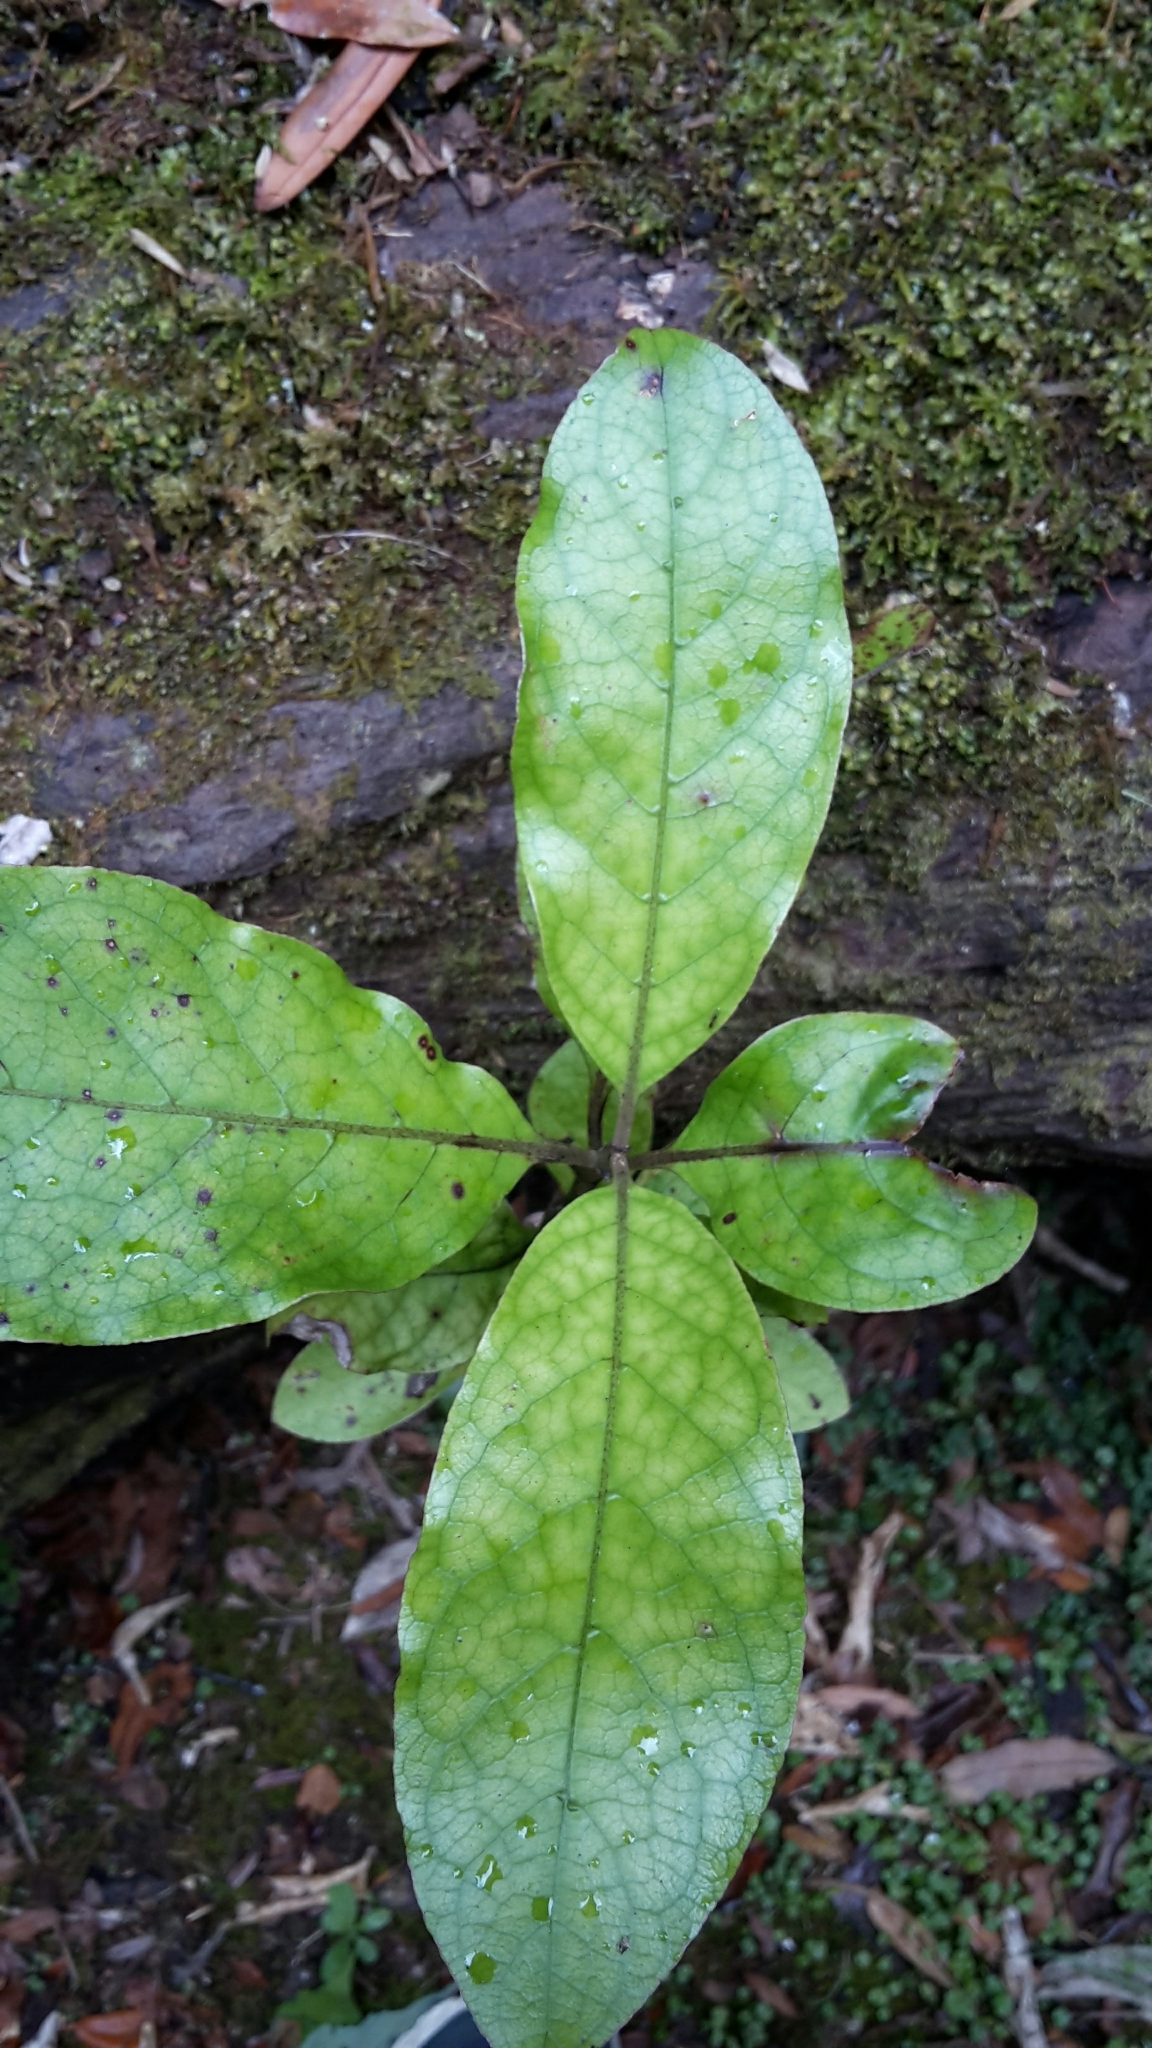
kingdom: Plantae
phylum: Tracheophyta
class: Magnoliopsida
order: Gentianales
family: Rubiaceae
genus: Coprosma
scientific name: Coprosma autumnalis
